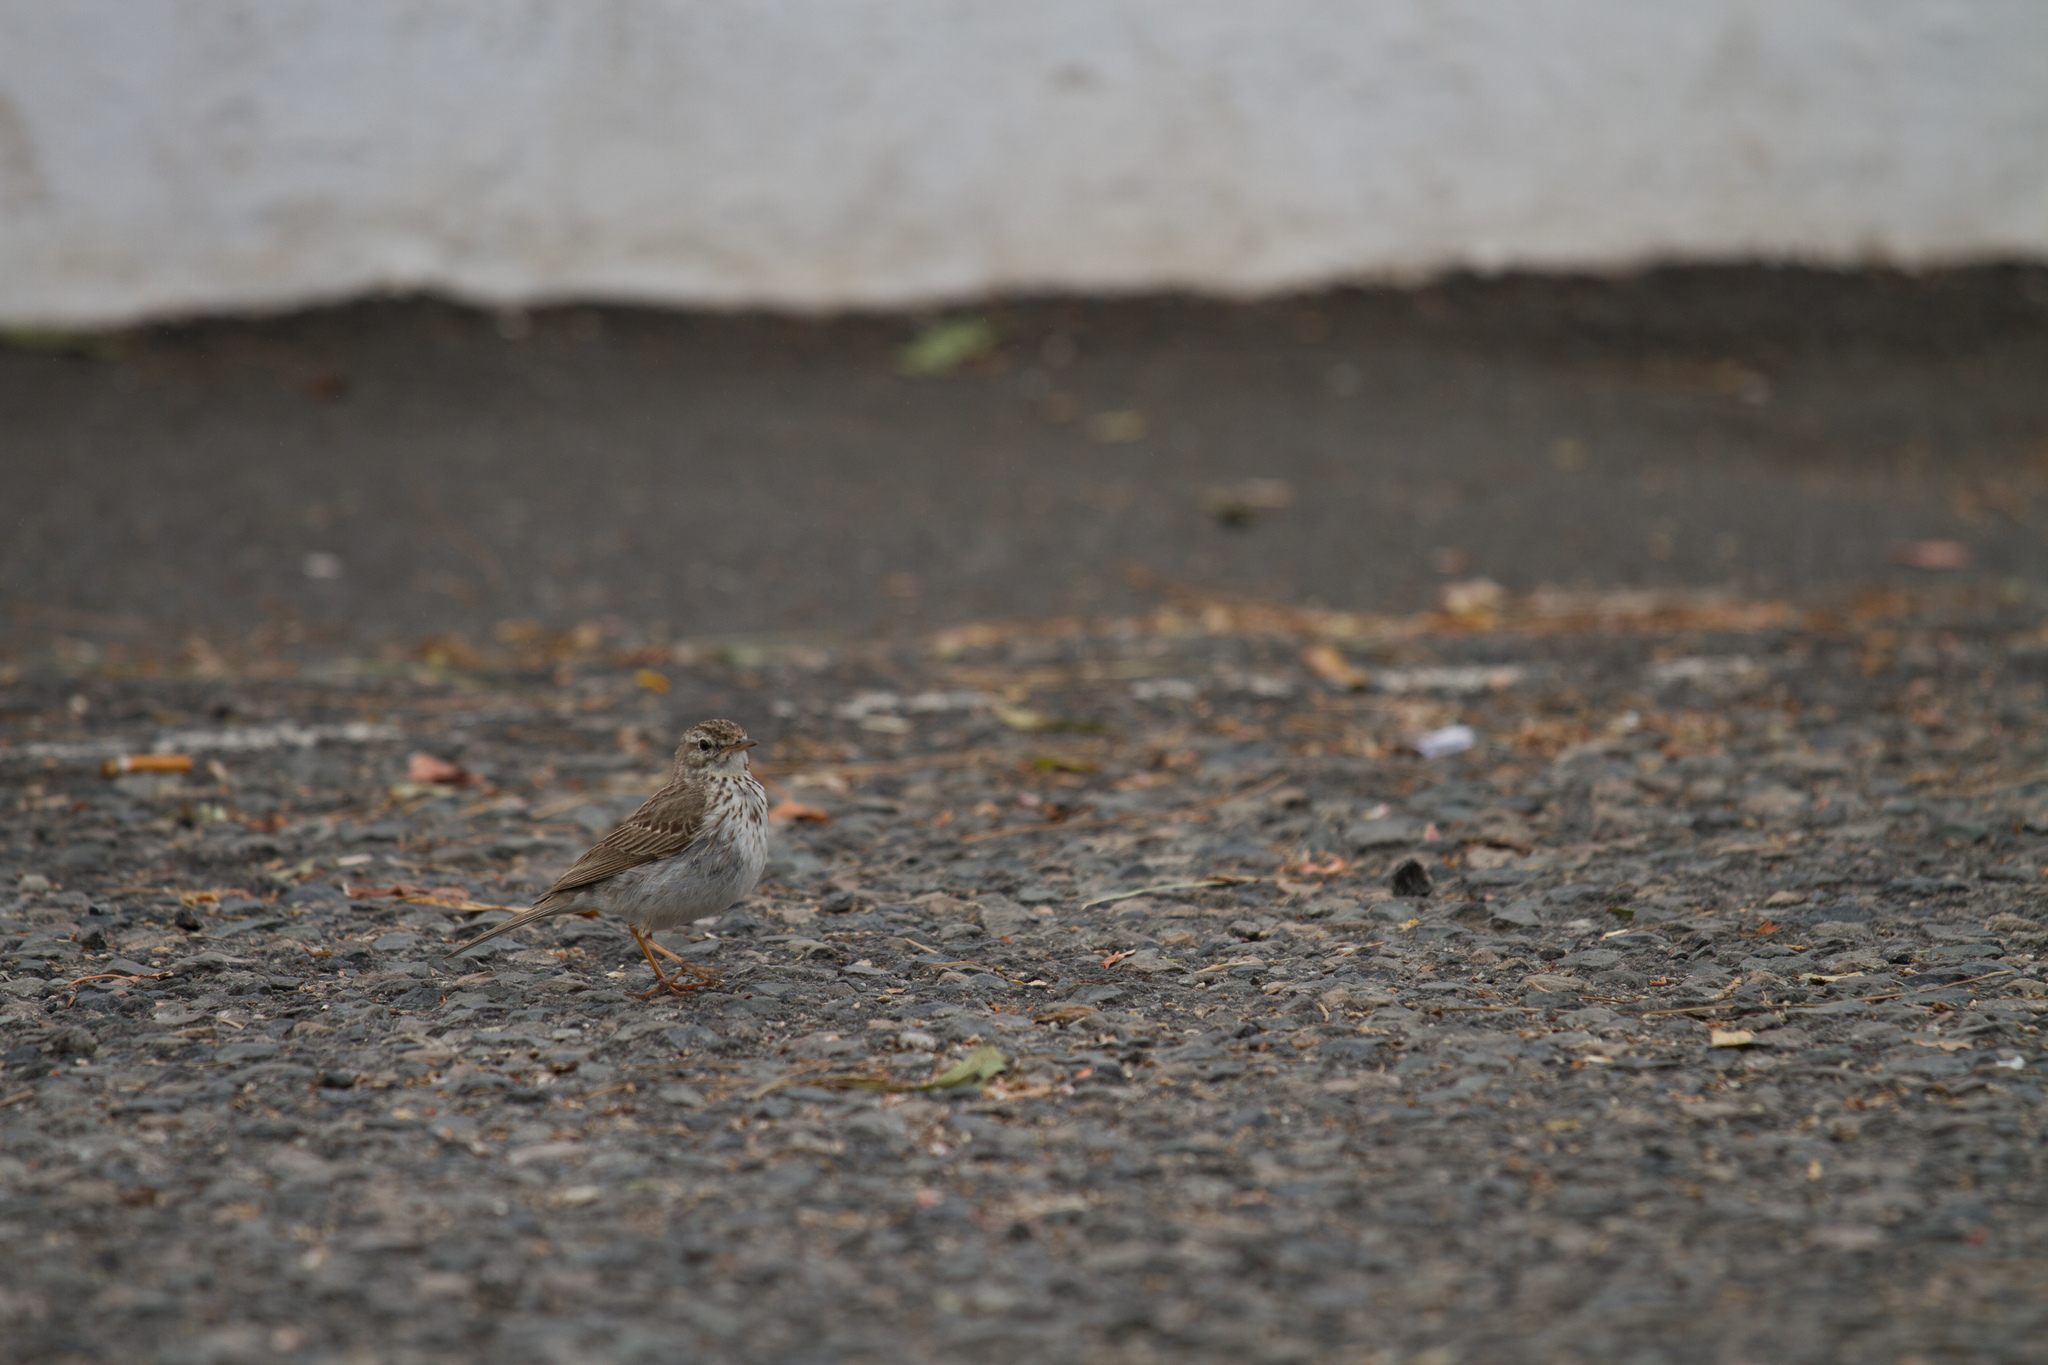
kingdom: Animalia
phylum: Chordata
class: Aves
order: Passeriformes
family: Motacillidae
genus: Anthus
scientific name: Anthus berthelotii
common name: Berthelot's pipit
